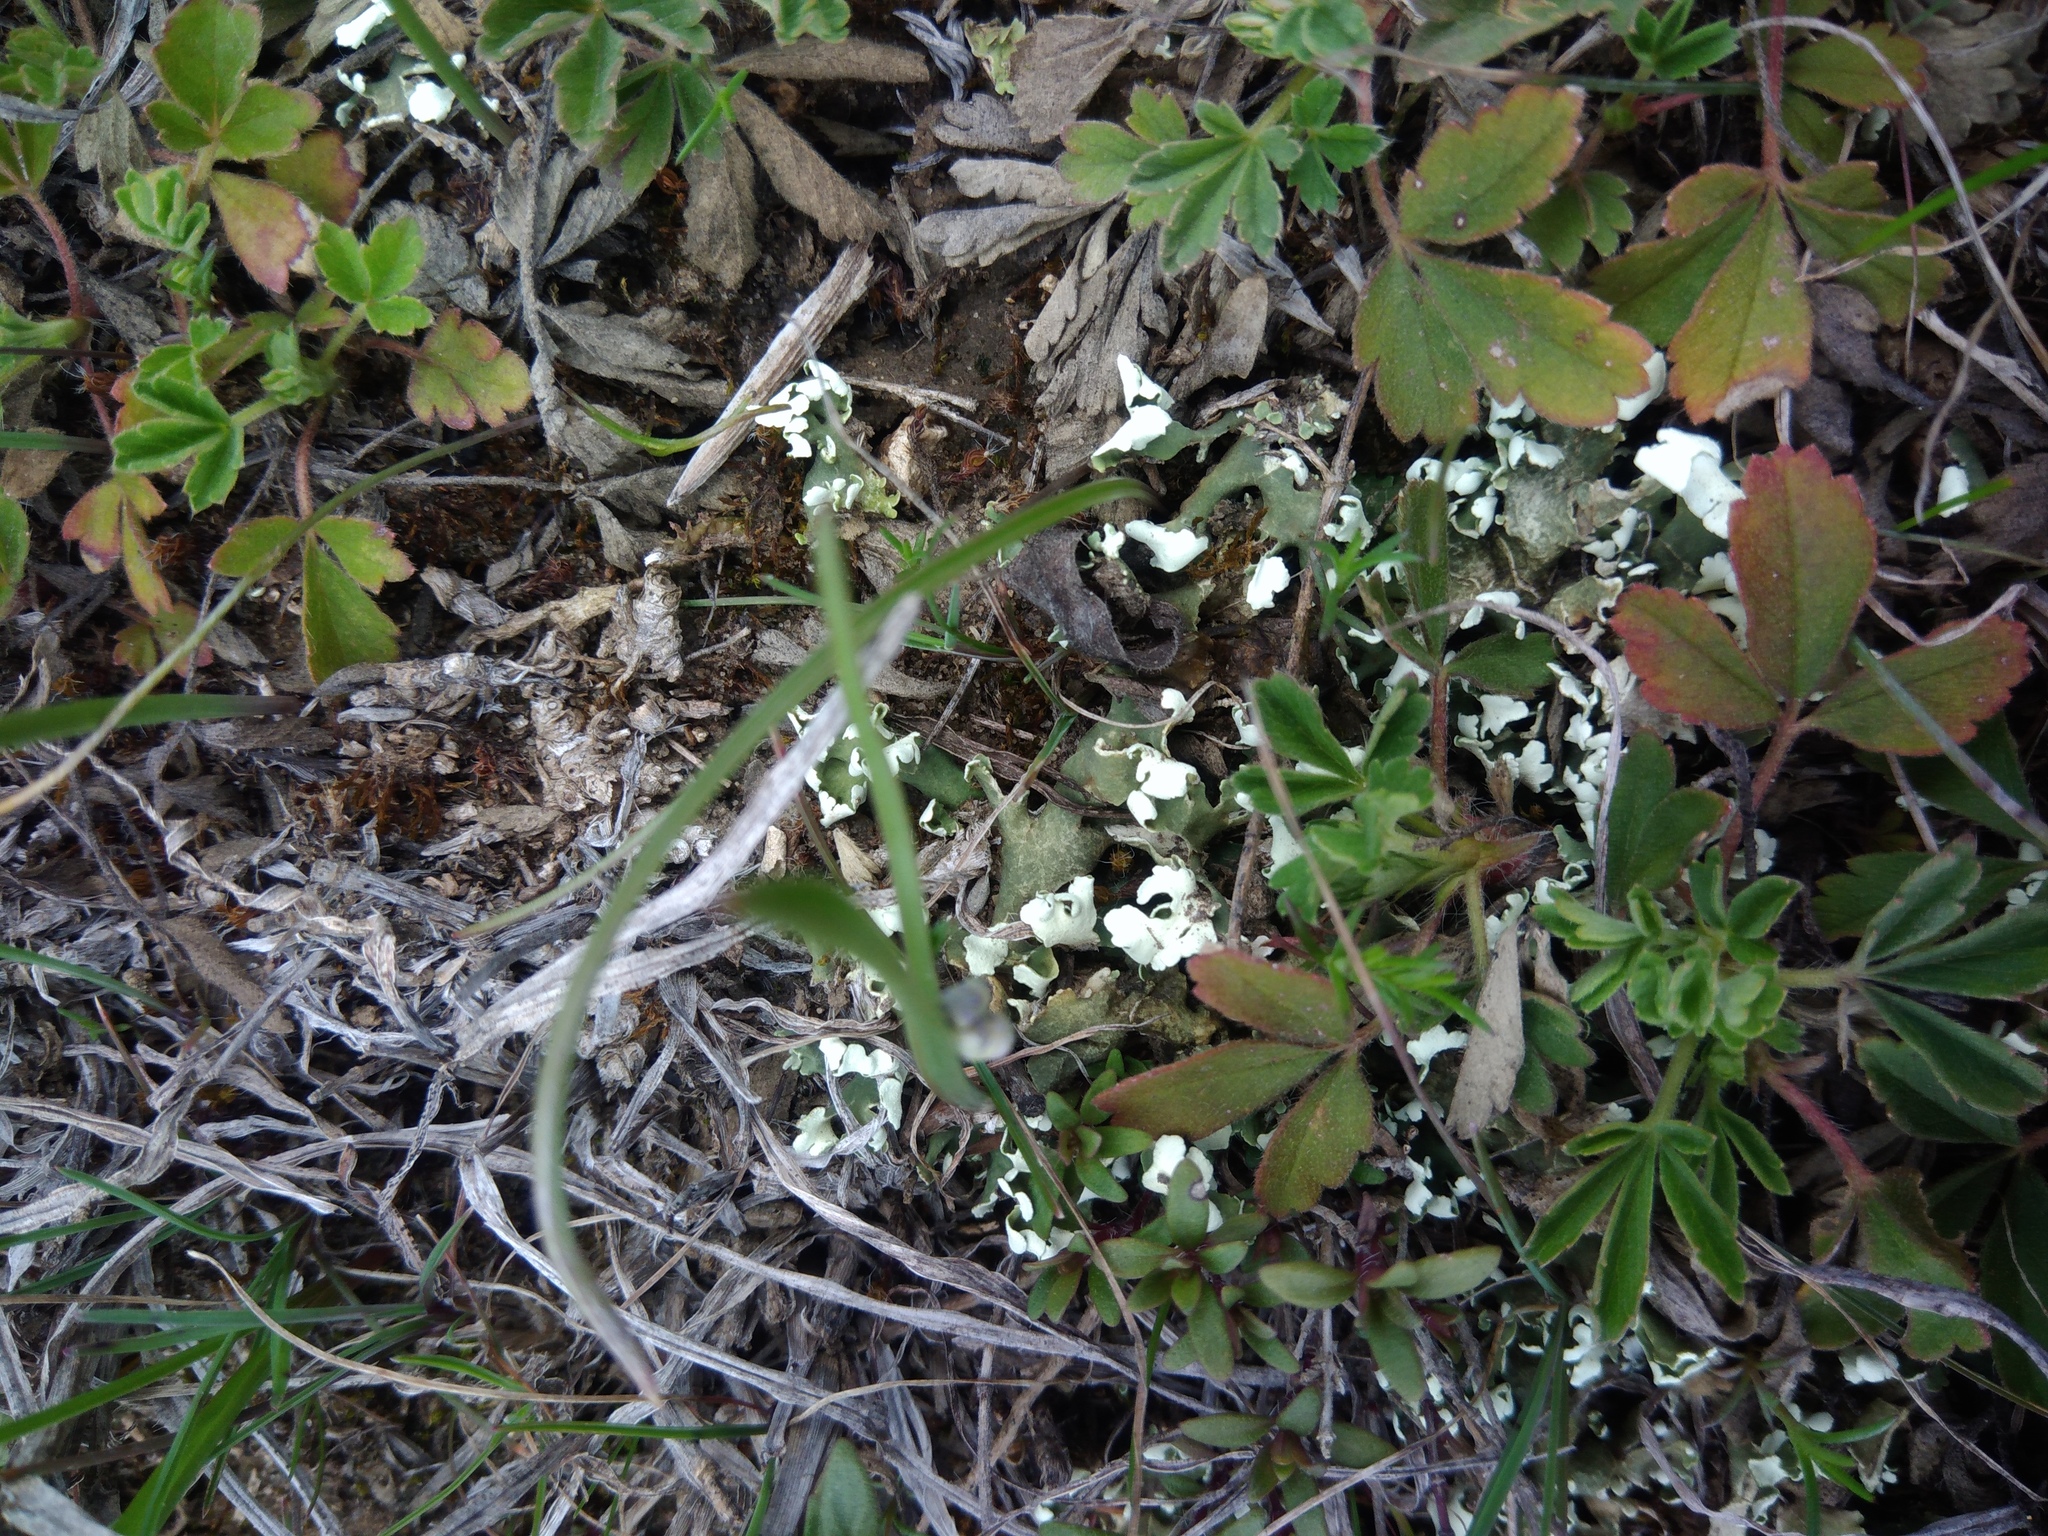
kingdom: Fungi
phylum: Ascomycota
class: Lecanoromycetes
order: Lecanorales
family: Cladoniaceae
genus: Cladonia
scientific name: Cladonia foliacea
